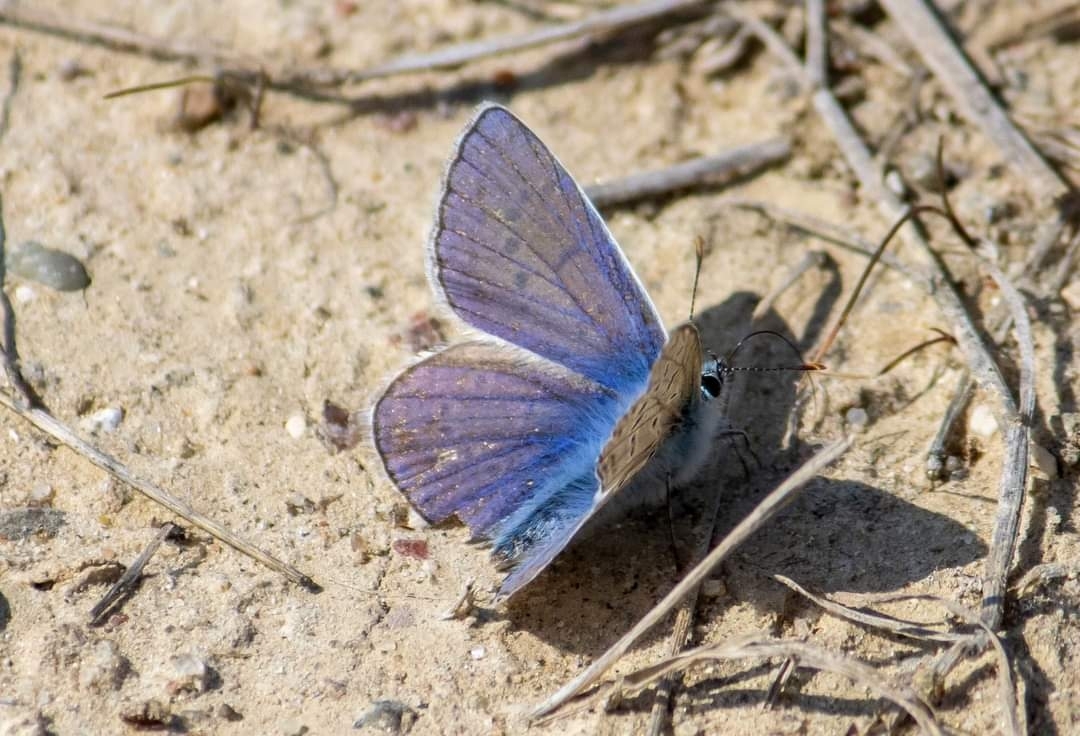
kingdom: Animalia
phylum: Arthropoda
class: Insecta
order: Lepidoptera
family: Lycaenidae
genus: Polyommatus
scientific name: Polyommatus icarus
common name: Common blue
